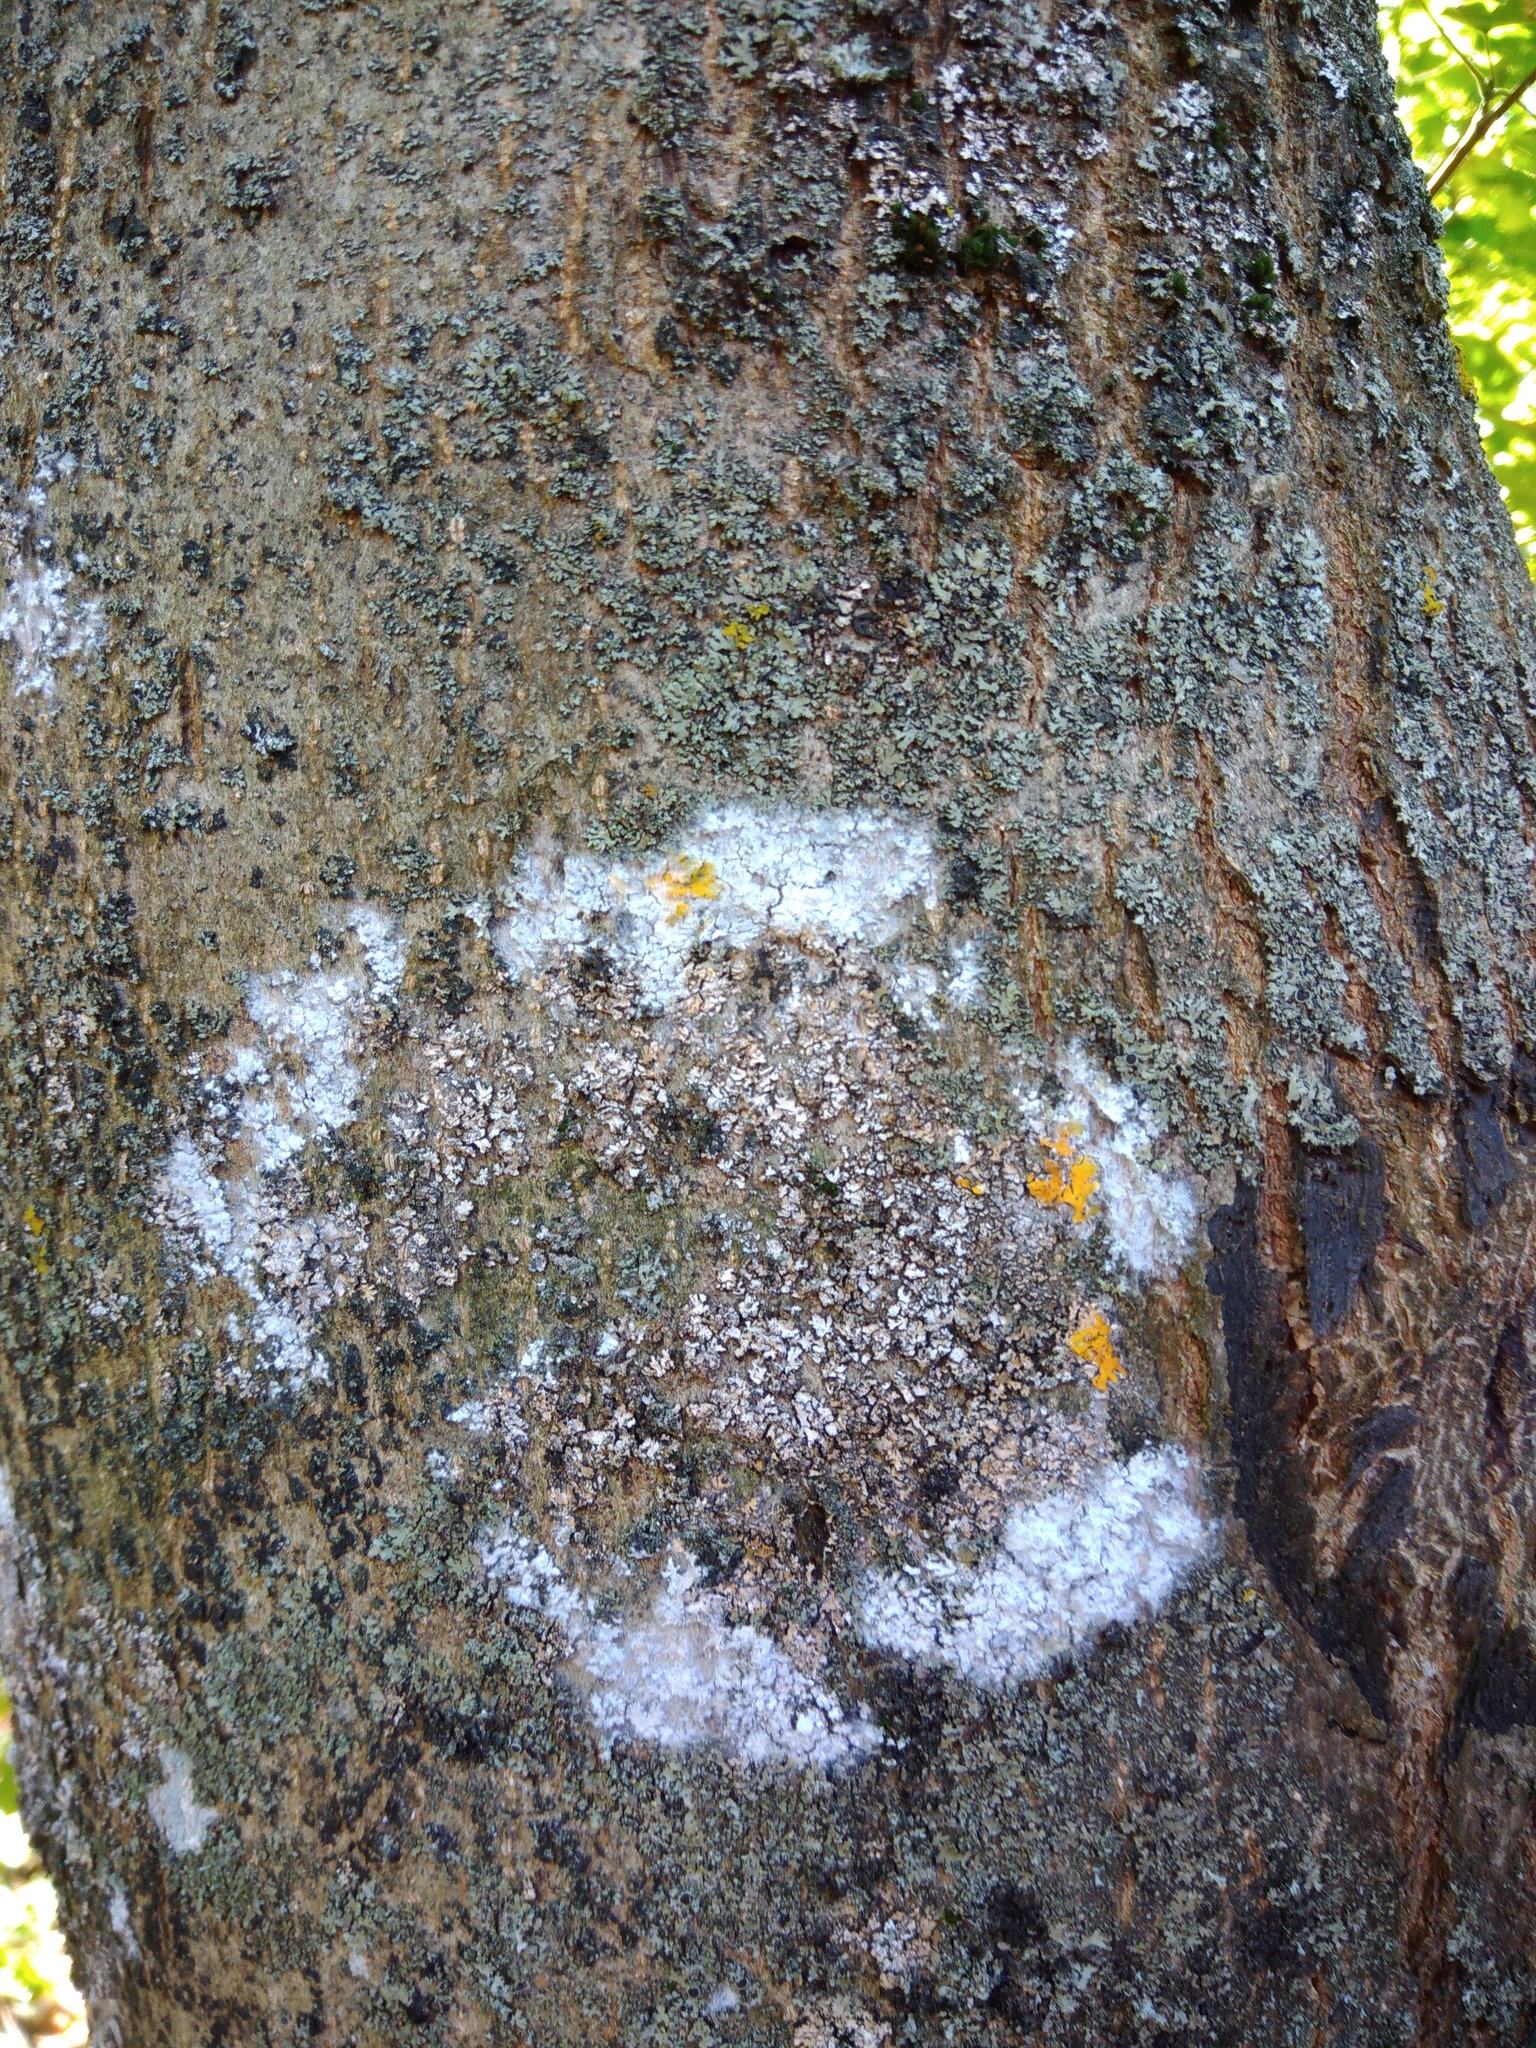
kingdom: Fungi
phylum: Basidiomycota
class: Agaricomycetes
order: Atheliales
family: Atheliaceae
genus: Athelia
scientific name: Athelia arachnoidea
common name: Candelabra duster
